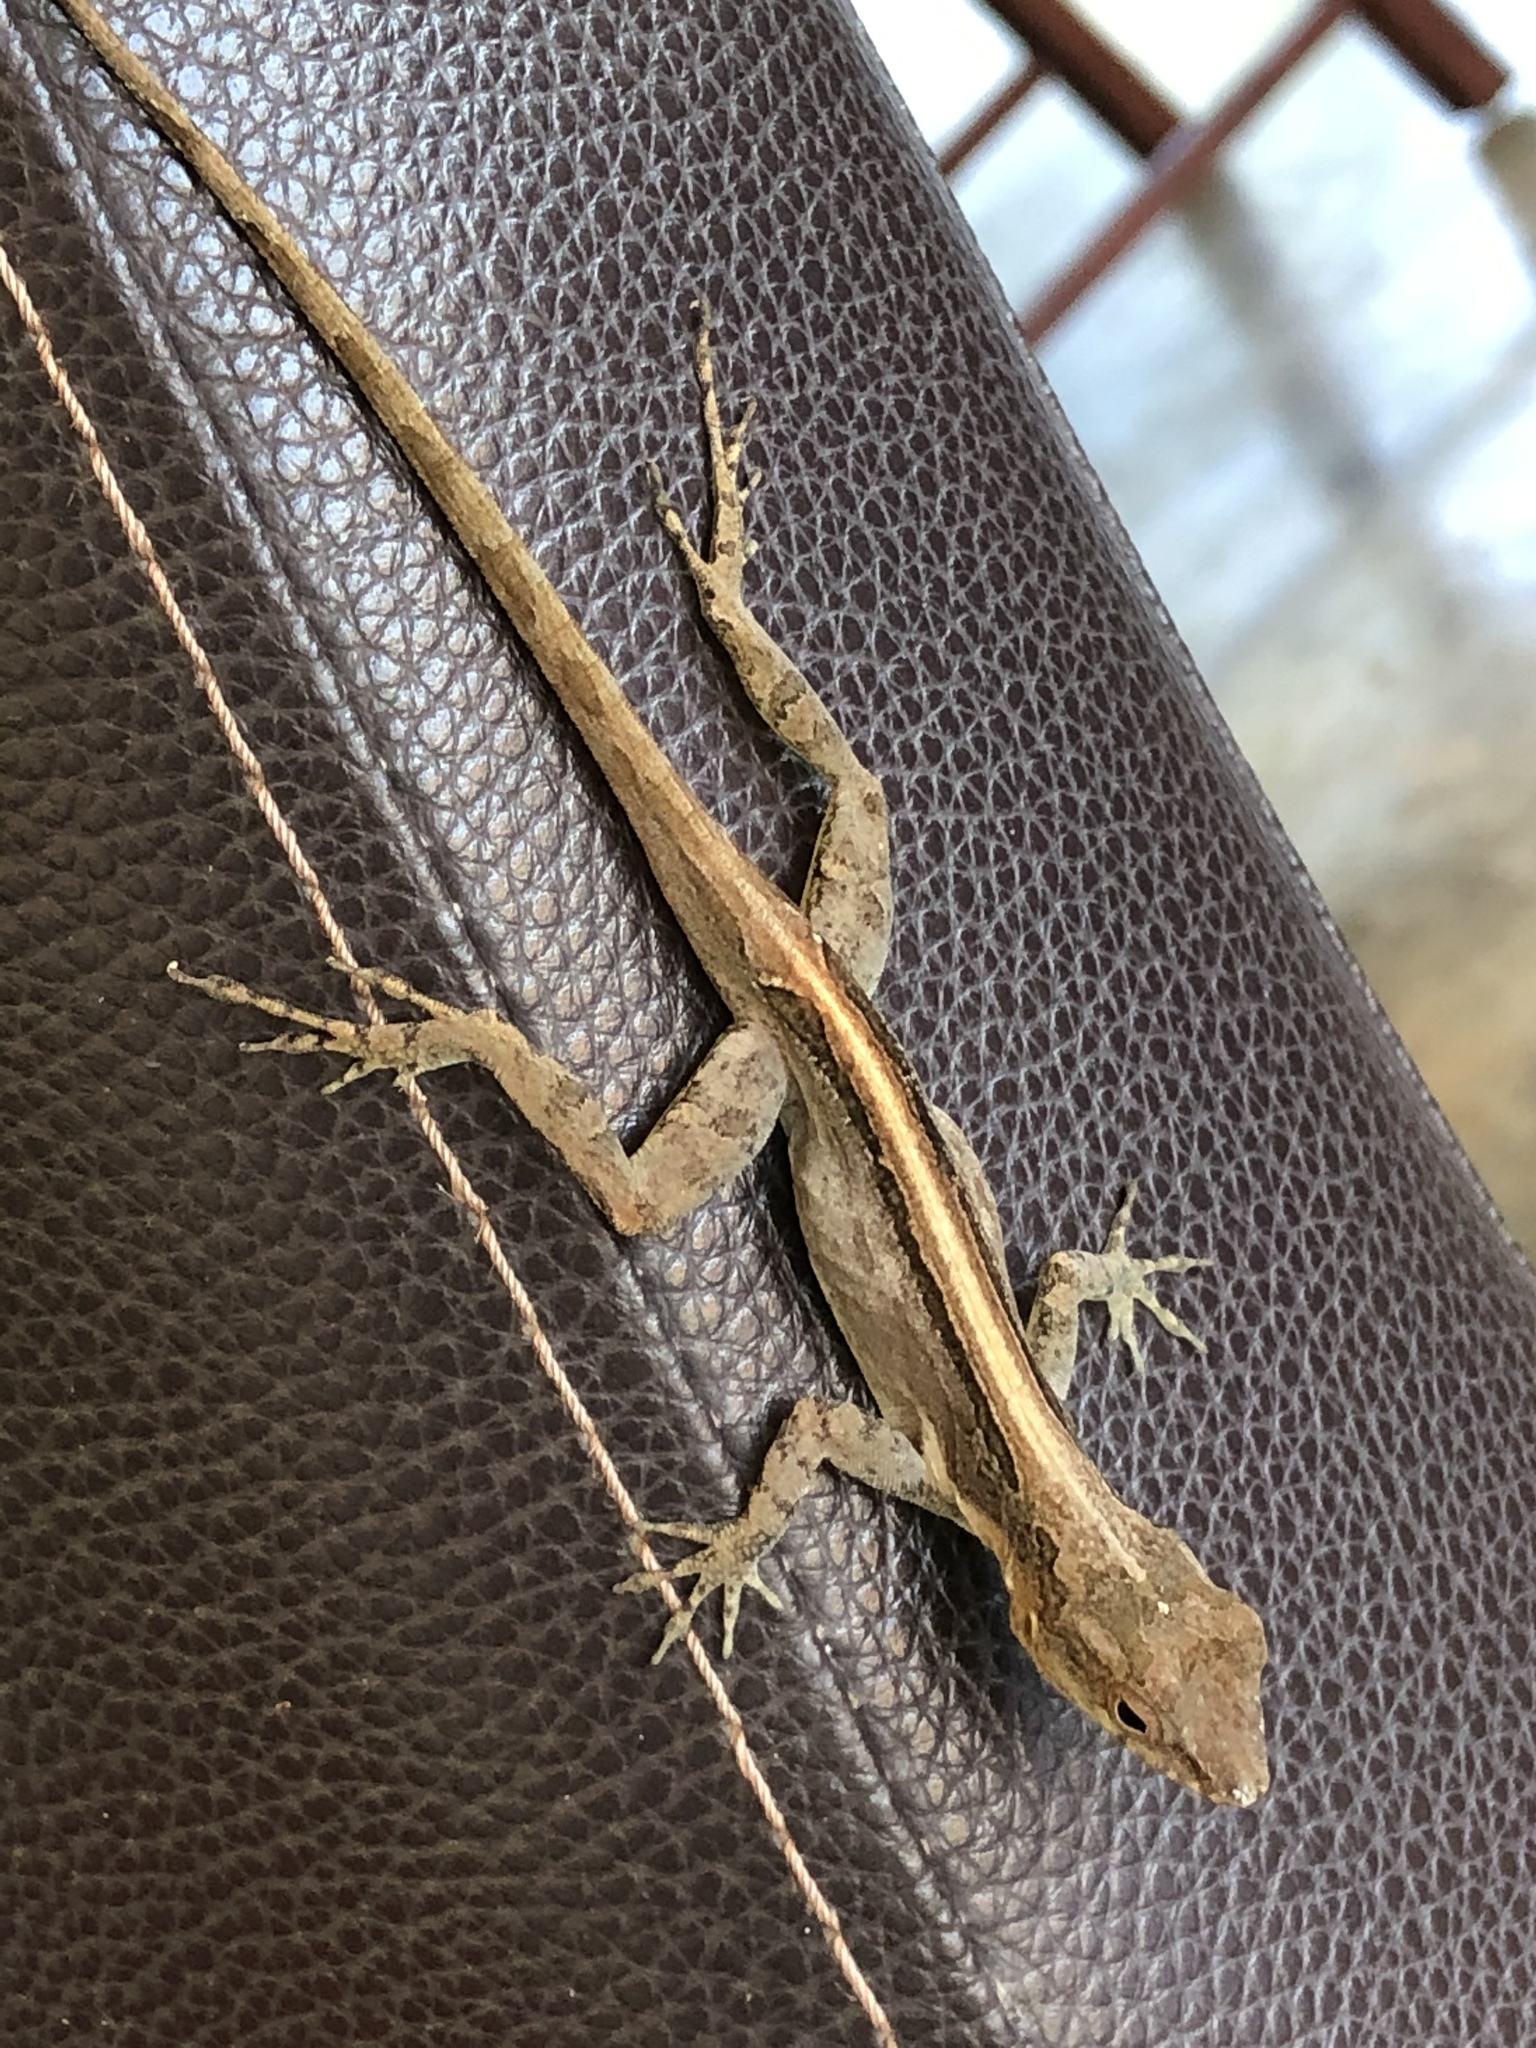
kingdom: Animalia
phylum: Chordata
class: Squamata
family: Dactyloidae
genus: Anolis
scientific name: Anolis cristatellus
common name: Crested anole
